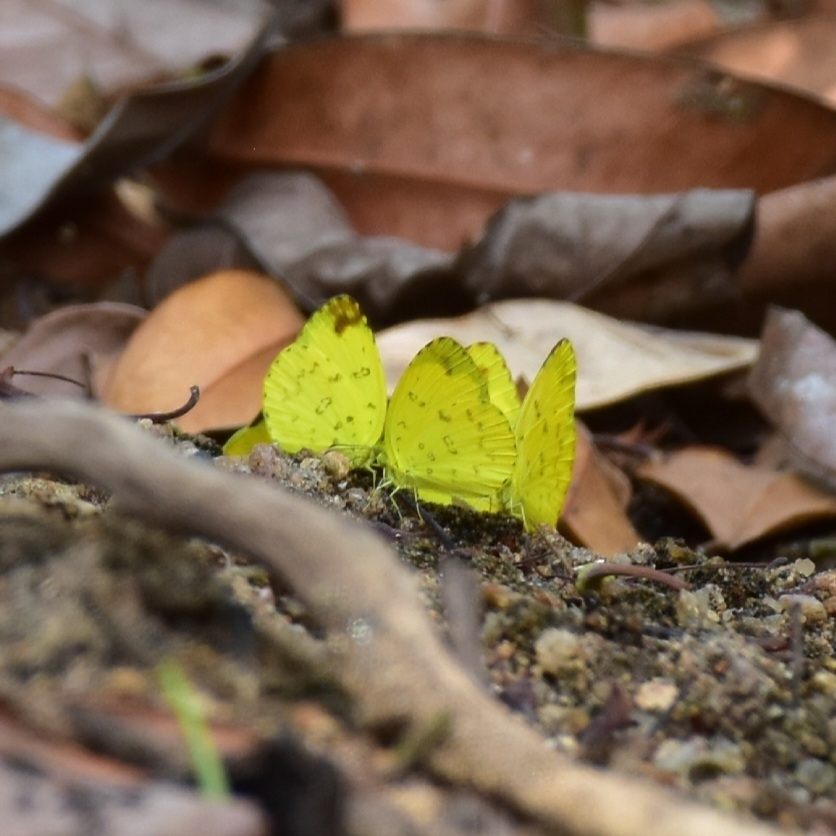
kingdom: Animalia
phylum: Arthropoda
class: Insecta
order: Lepidoptera
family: Pieridae
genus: Eurema
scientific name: Eurema blanda
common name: Three-spot grass yellow
